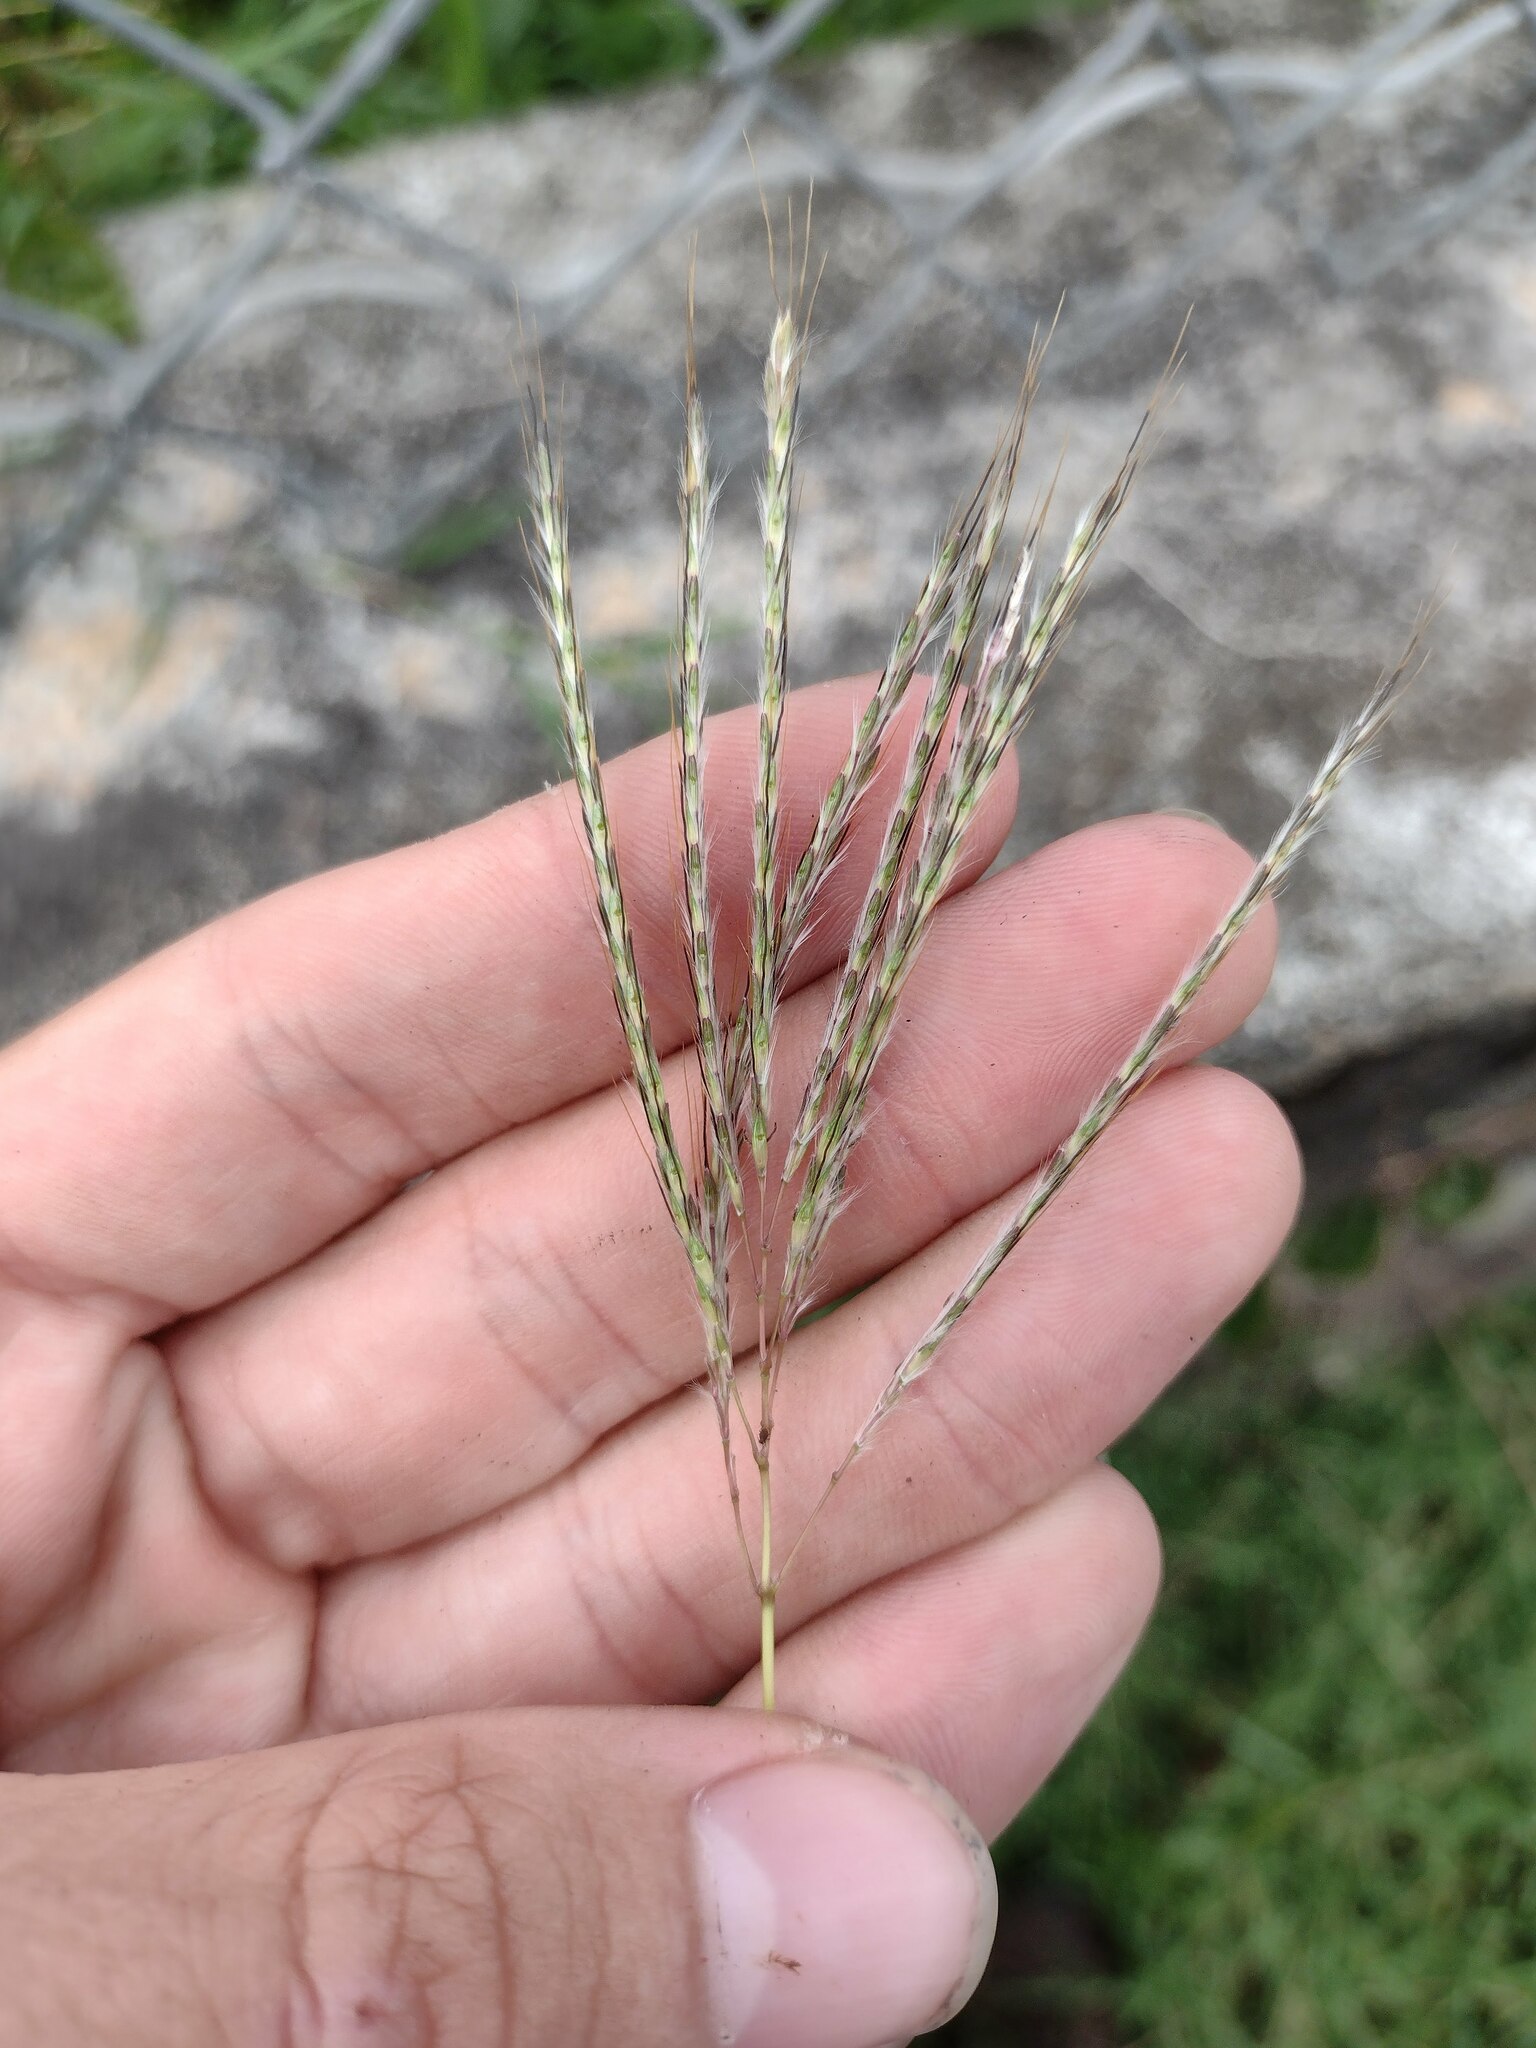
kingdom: Plantae
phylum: Tracheophyta
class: Liliopsida
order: Poales
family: Poaceae
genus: Bothriochloa
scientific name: Bothriochloa pertusa
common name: Pitted beardgrass
